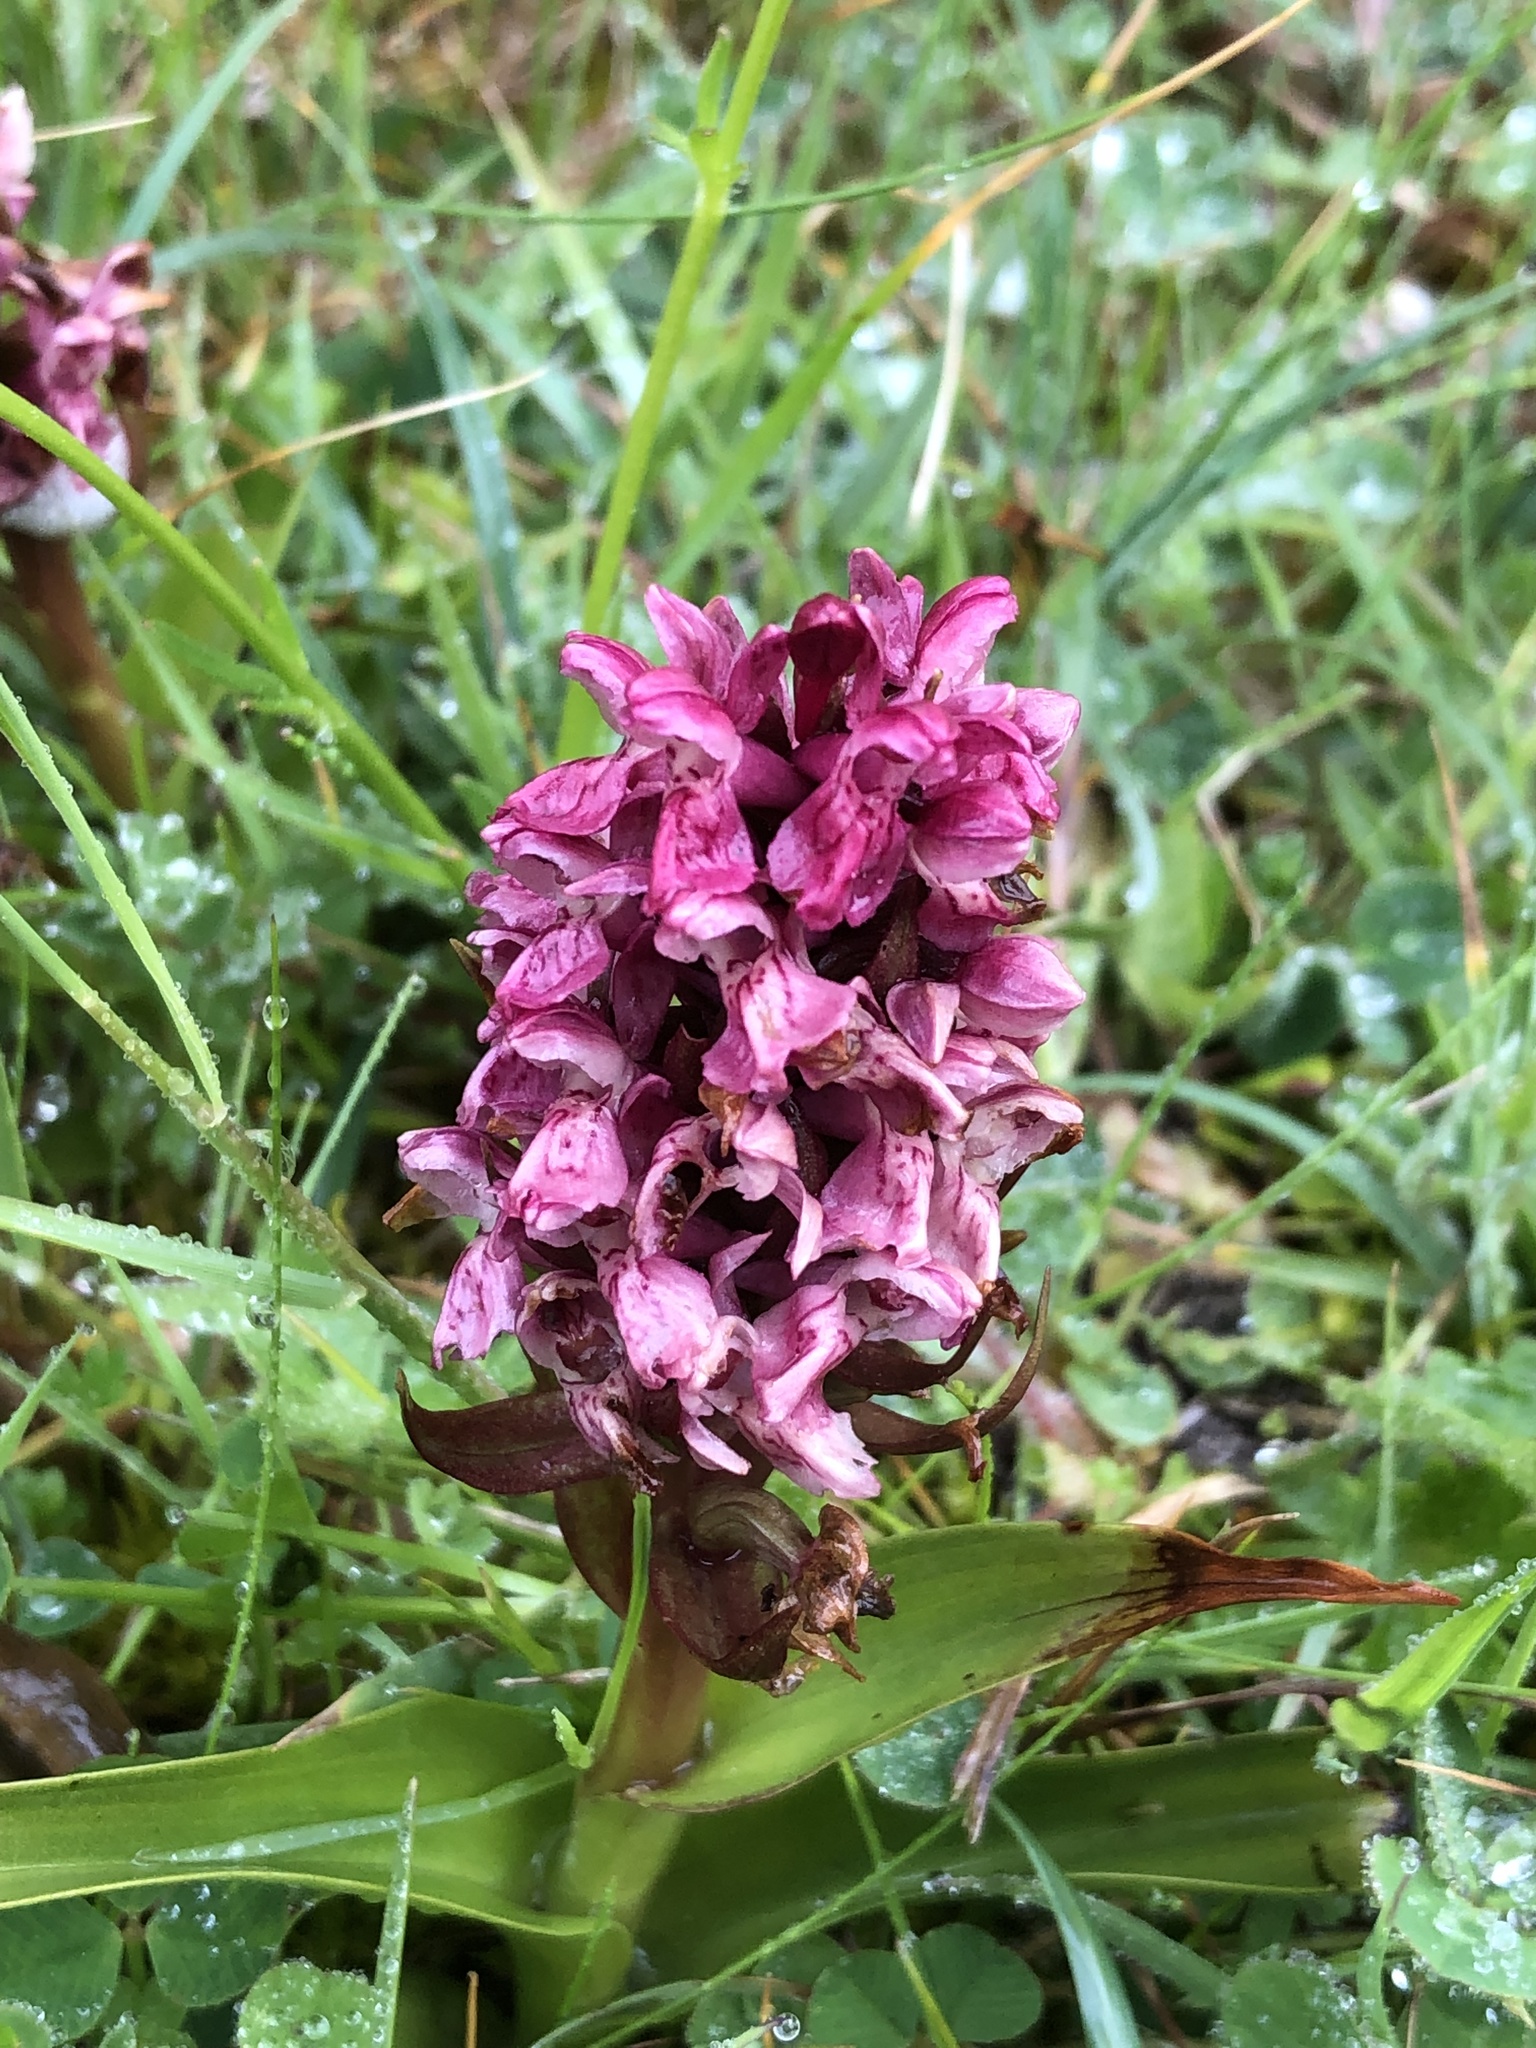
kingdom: Plantae
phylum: Tracheophyta
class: Liliopsida
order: Asparagales
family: Orchidaceae
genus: Dactylorhiza
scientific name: Dactylorhiza incarnata
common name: Early marsh-orchid
